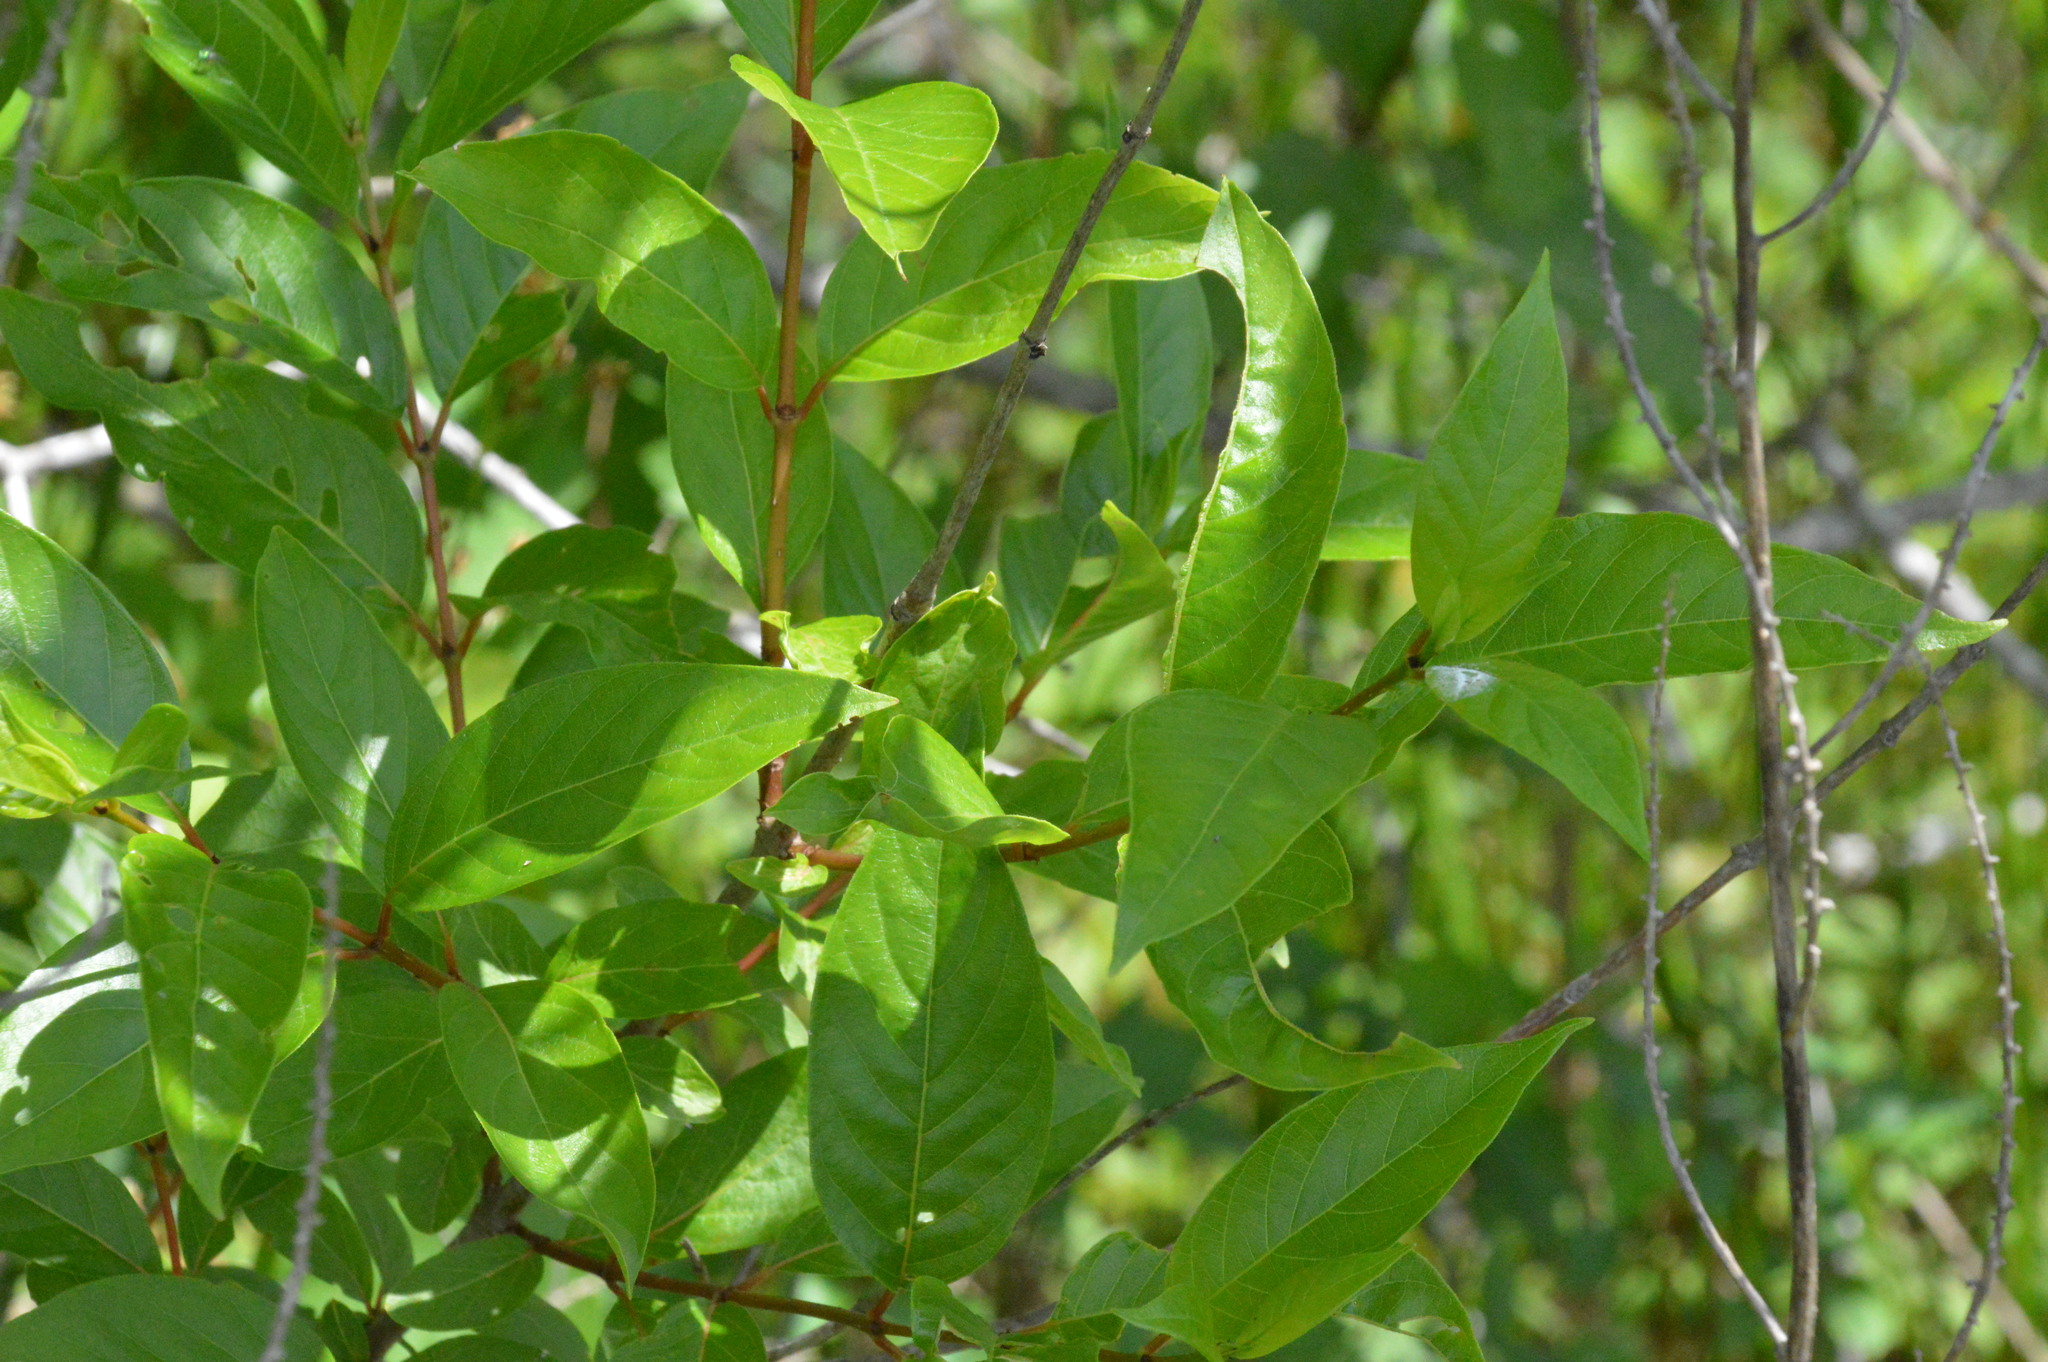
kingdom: Plantae
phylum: Tracheophyta
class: Magnoliopsida
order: Gentianales
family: Rubiaceae
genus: Cephalanthus
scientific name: Cephalanthus occidentalis
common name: Button-willow
